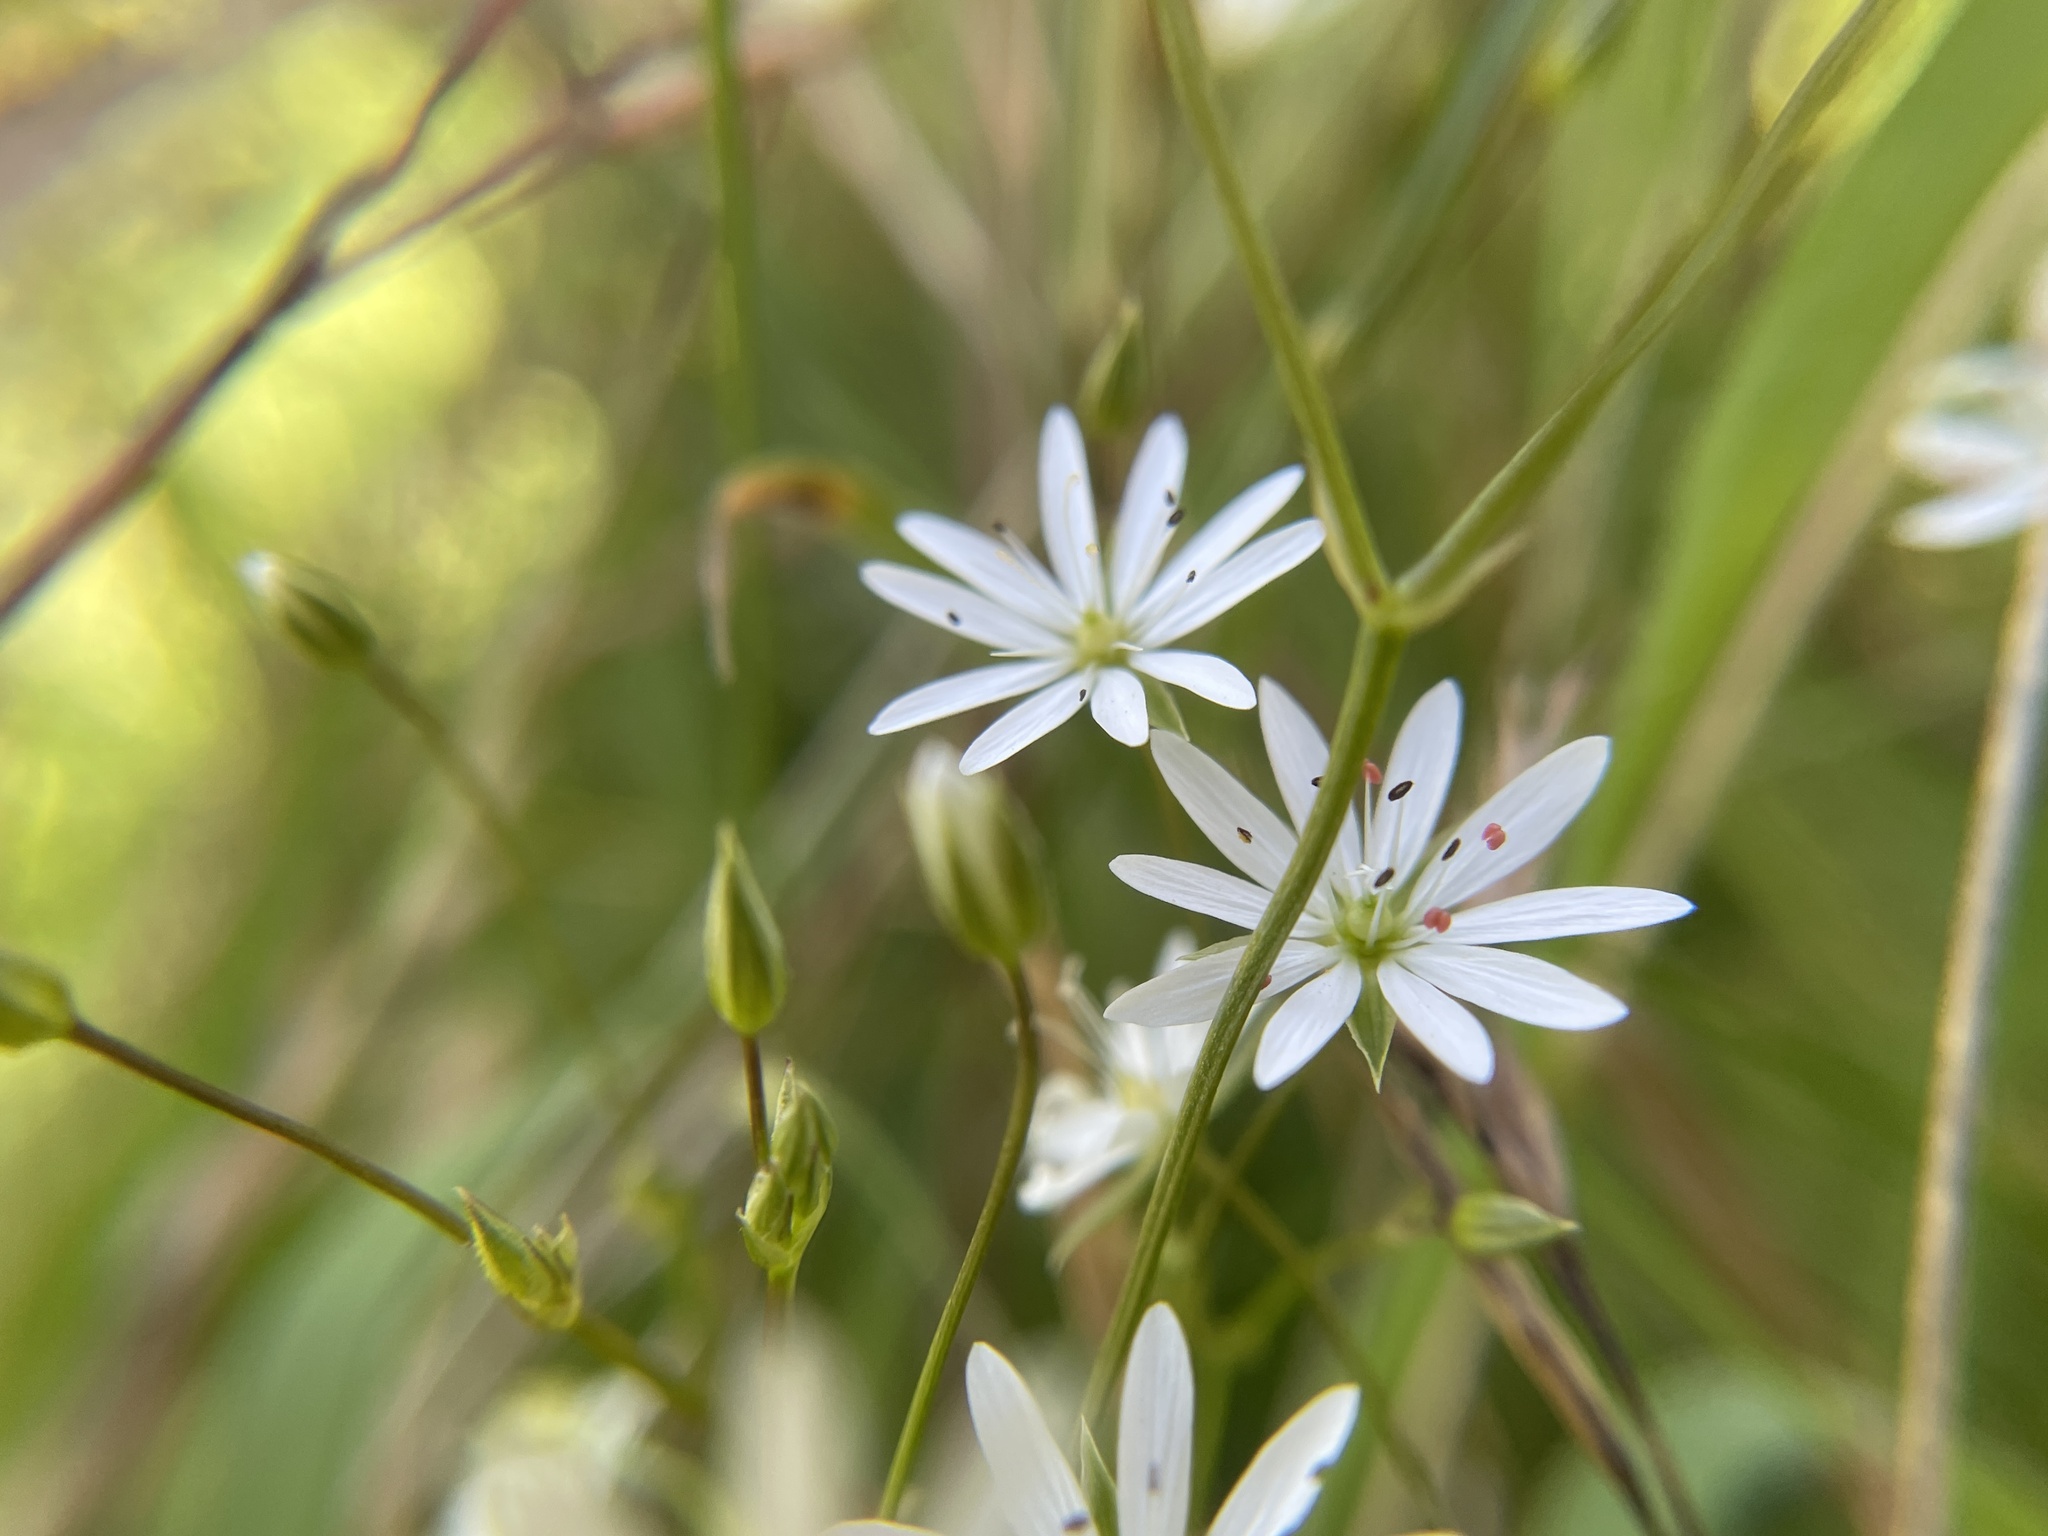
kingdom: Plantae
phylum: Tracheophyta
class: Magnoliopsida
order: Caryophyllales
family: Caryophyllaceae
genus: Stellaria
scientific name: Stellaria graminea
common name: Grass-like starwort
